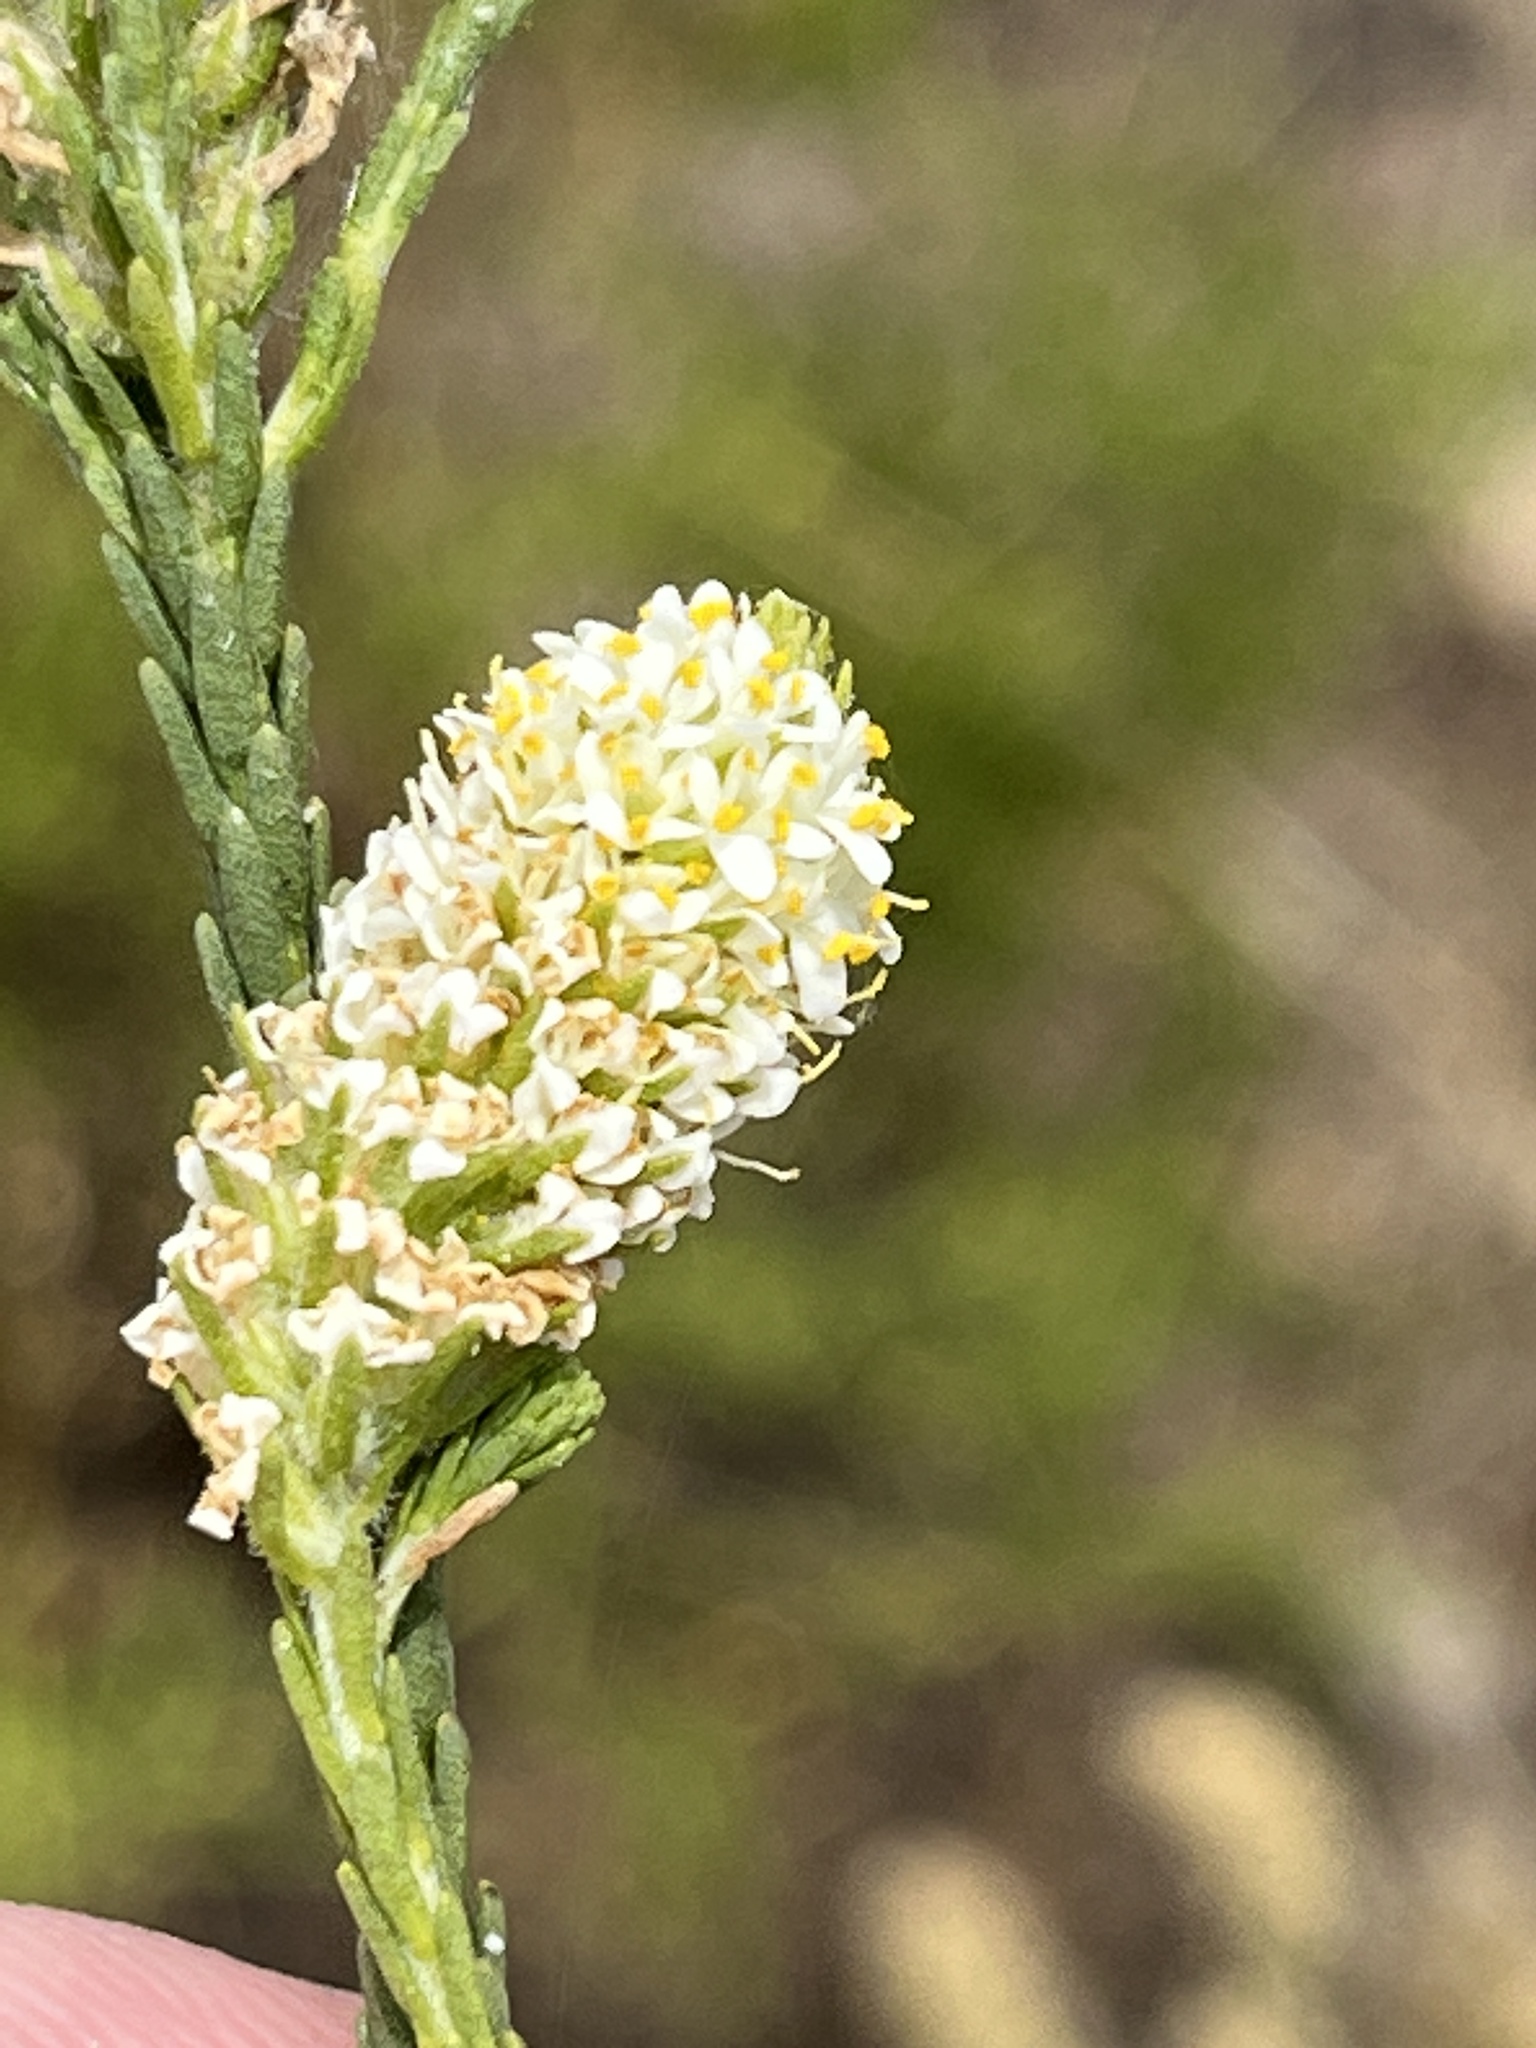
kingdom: Plantae
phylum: Tracheophyta
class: Magnoliopsida
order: Lamiales
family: Scrophulariaceae
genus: Selago
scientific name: Selago aspera
